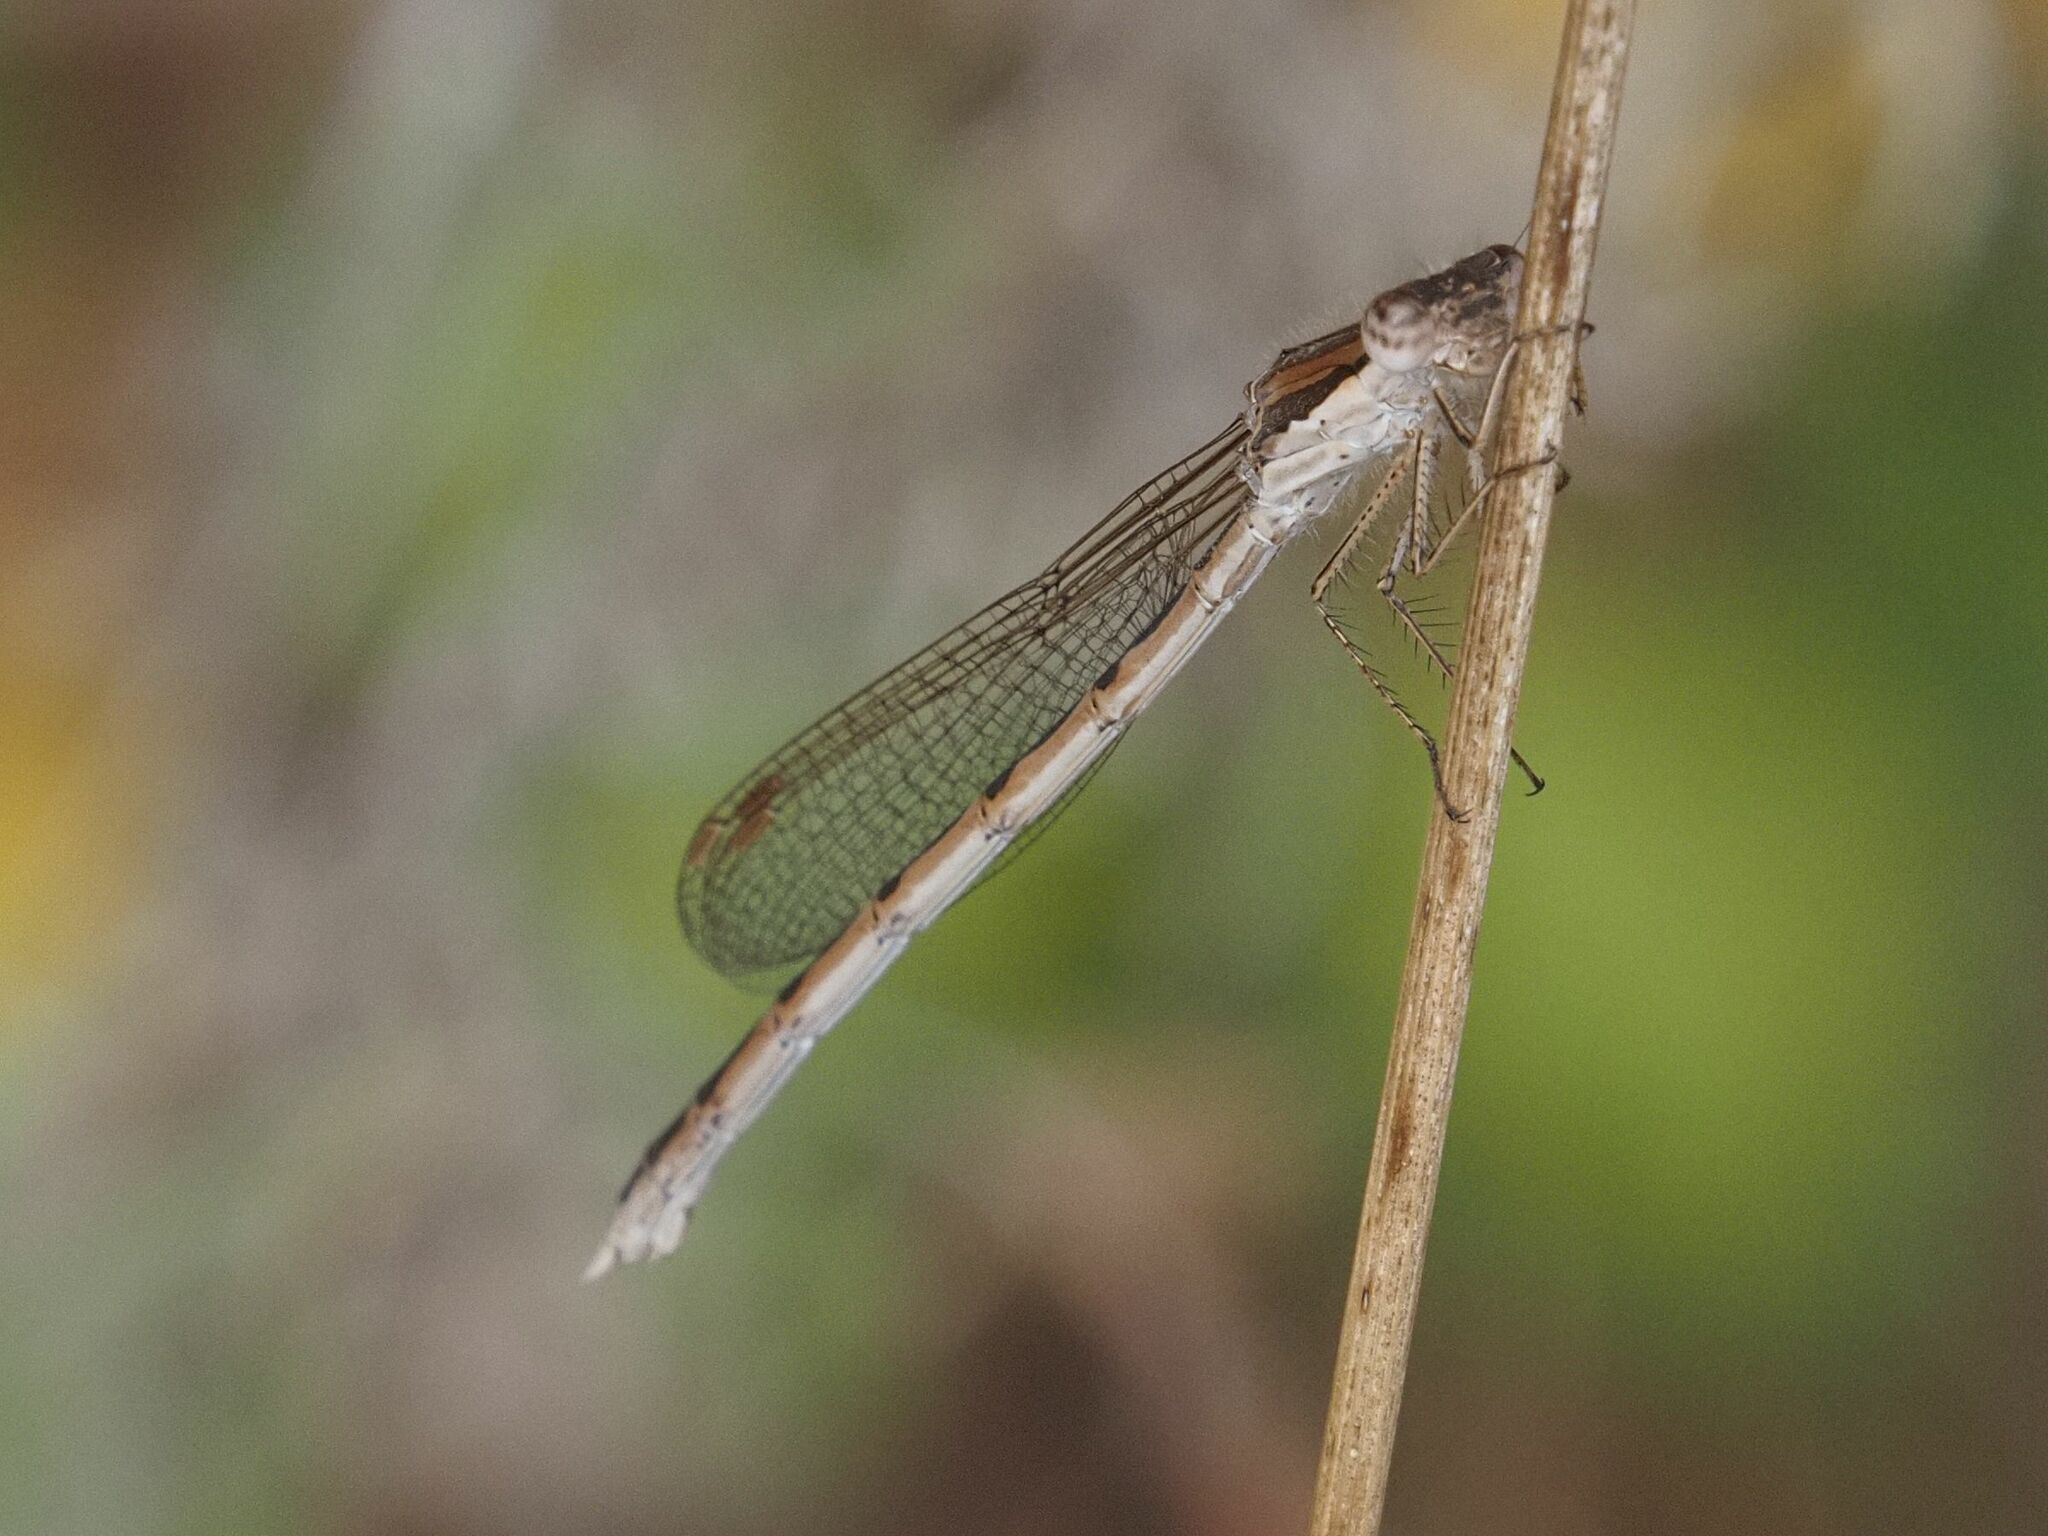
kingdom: Animalia
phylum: Arthropoda
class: Insecta
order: Odonata
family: Lestidae
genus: Sympecma
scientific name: Sympecma fusca
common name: Common winter damsel
